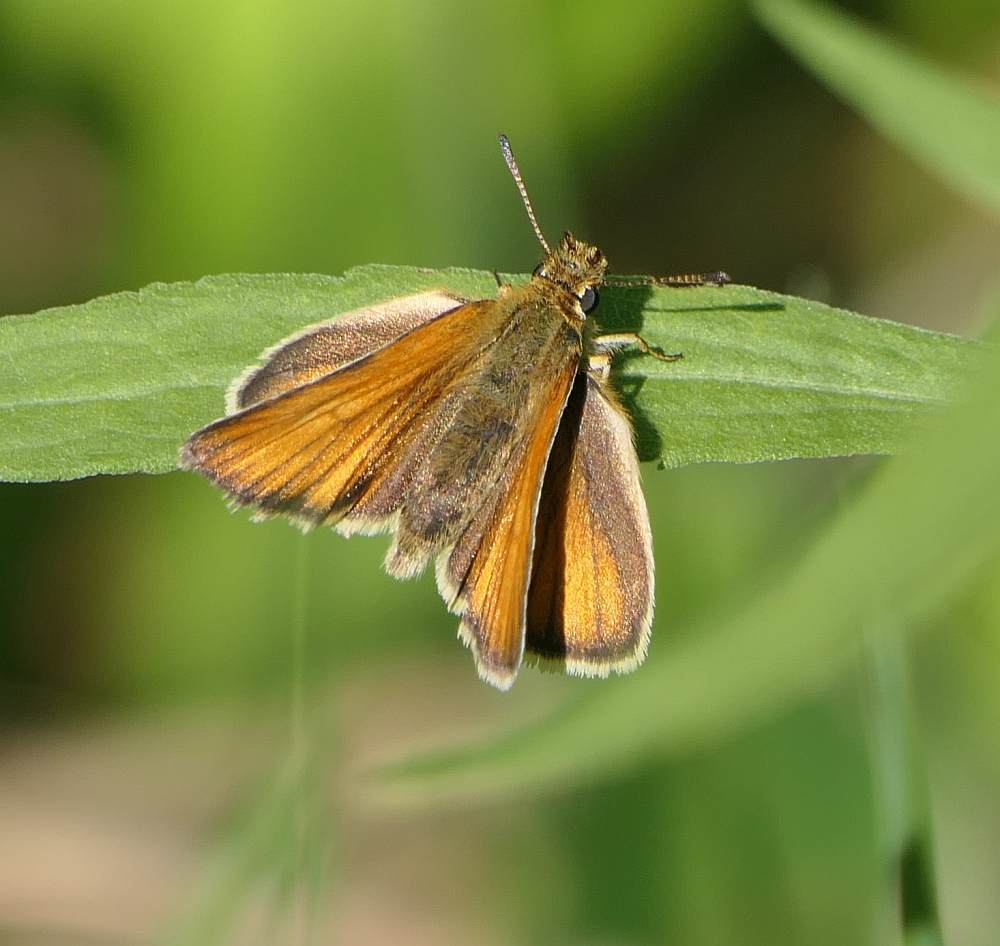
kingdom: Animalia
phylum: Arthropoda
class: Insecta
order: Lepidoptera
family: Hesperiidae
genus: Thymelicus
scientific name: Thymelicus lineola
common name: Essex skipper
